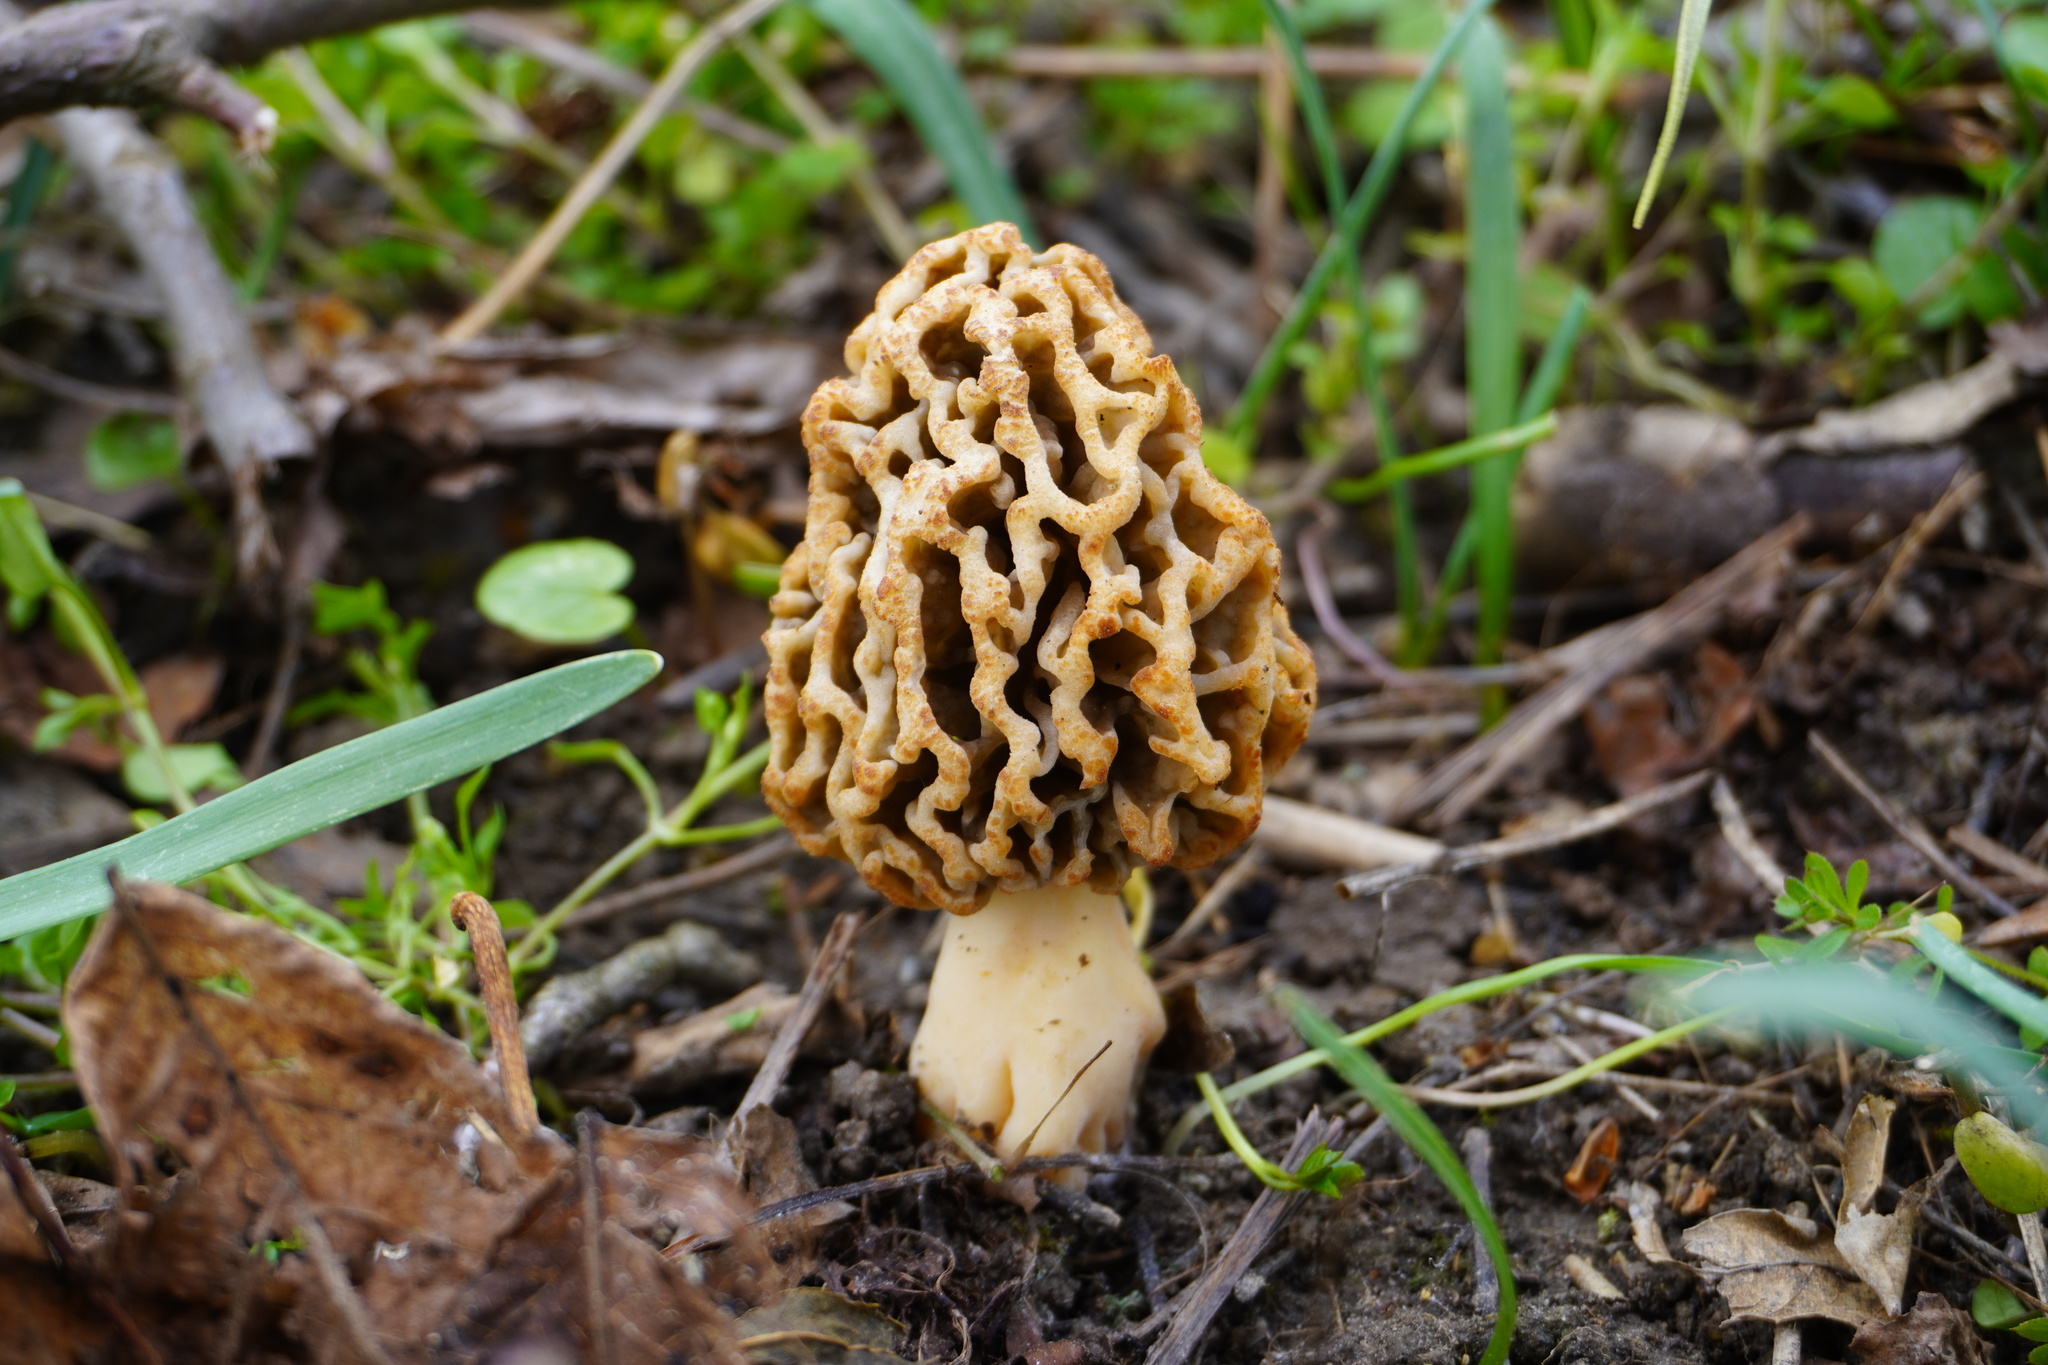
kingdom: Fungi
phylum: Ascomycota
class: Pezizomycetes
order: Pezizales
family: Morchellaceae
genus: Morchella
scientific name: Morchella vulgaris
